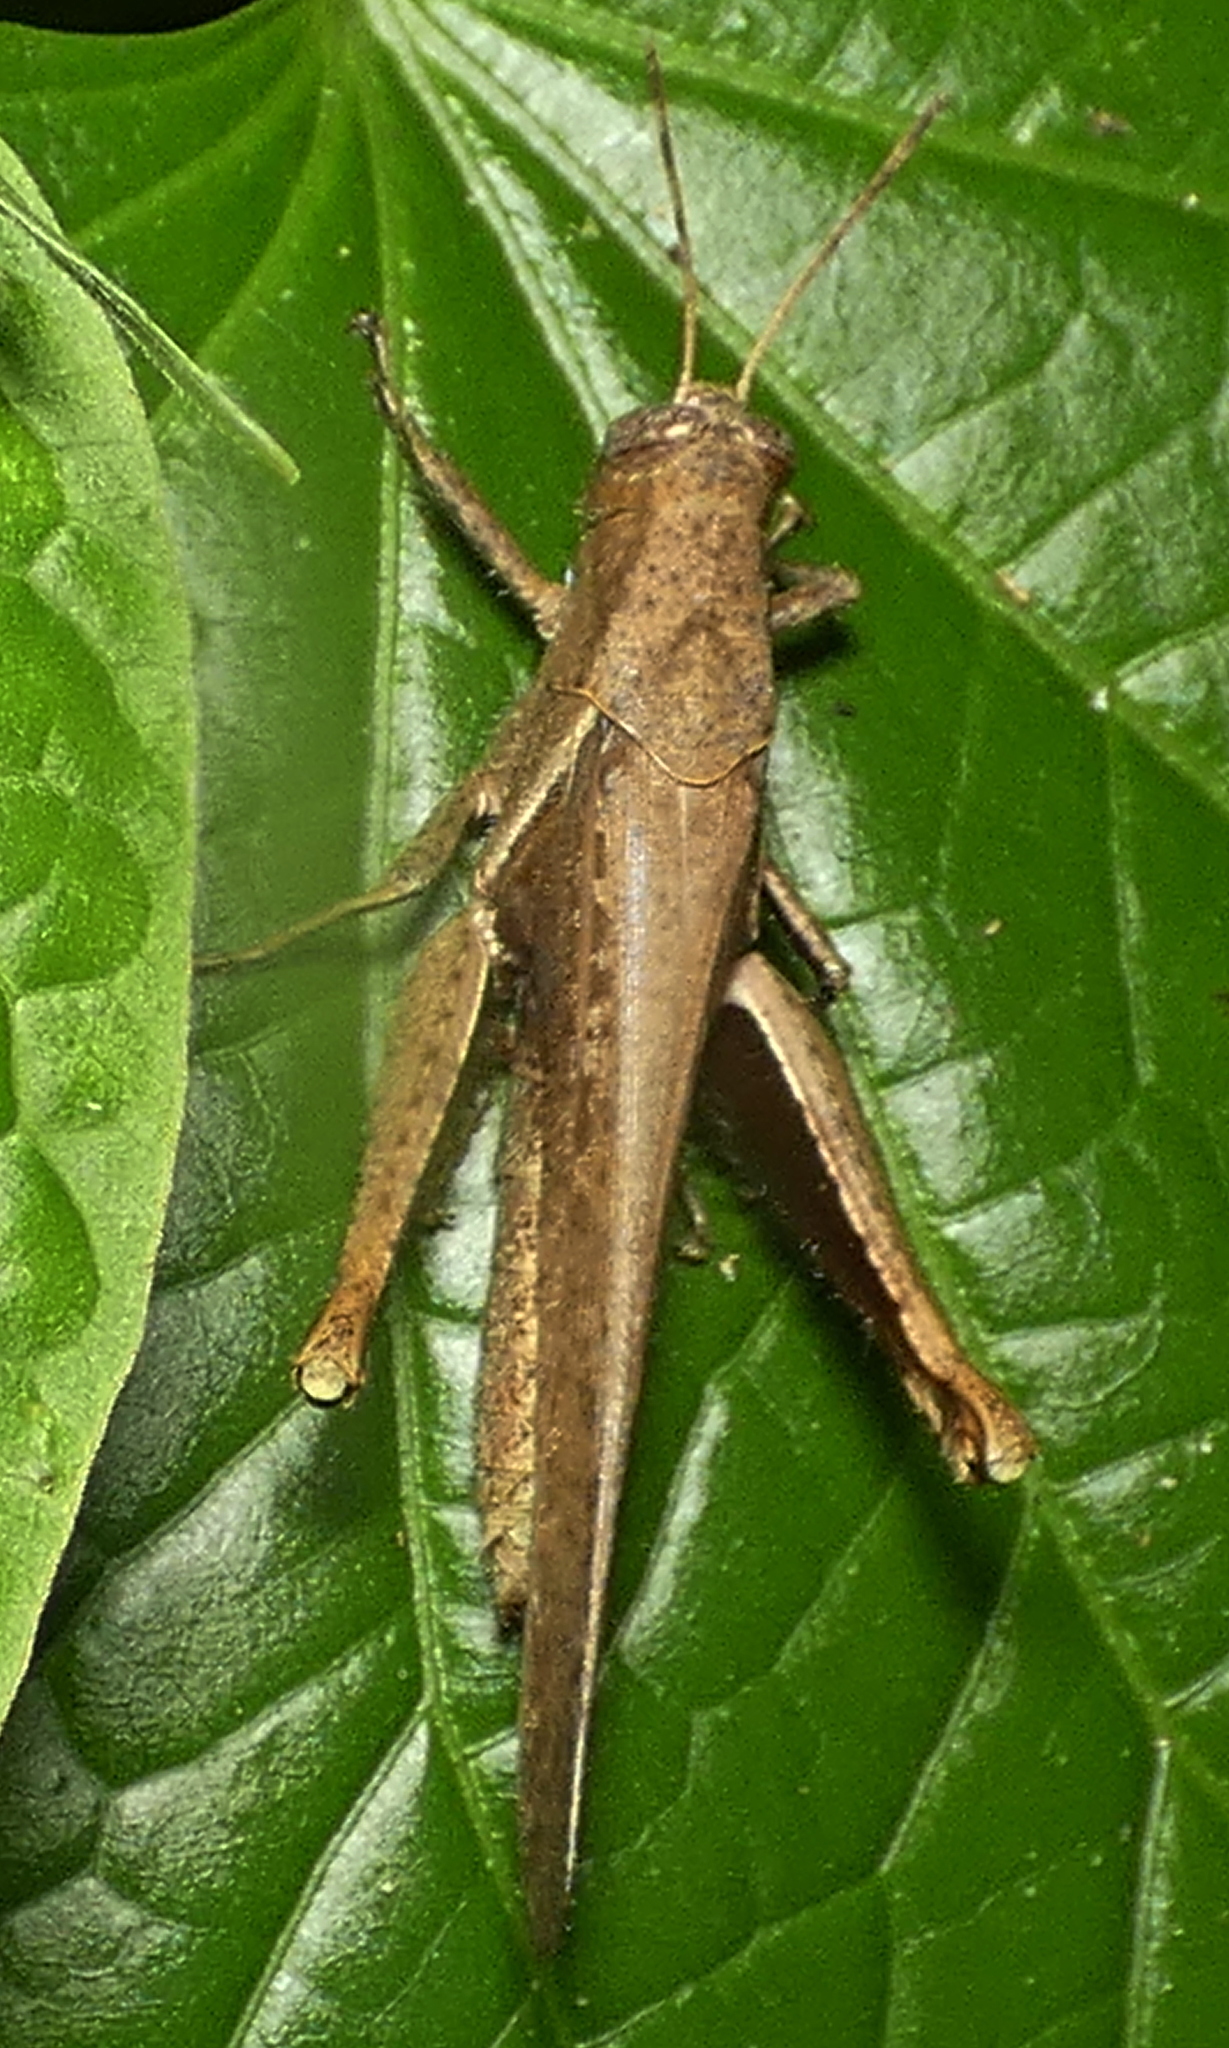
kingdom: Animalia
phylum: Arthropoda
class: Insecta
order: Orthoptera
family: Acrididae
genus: Abracris
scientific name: Abracris flavolineata
